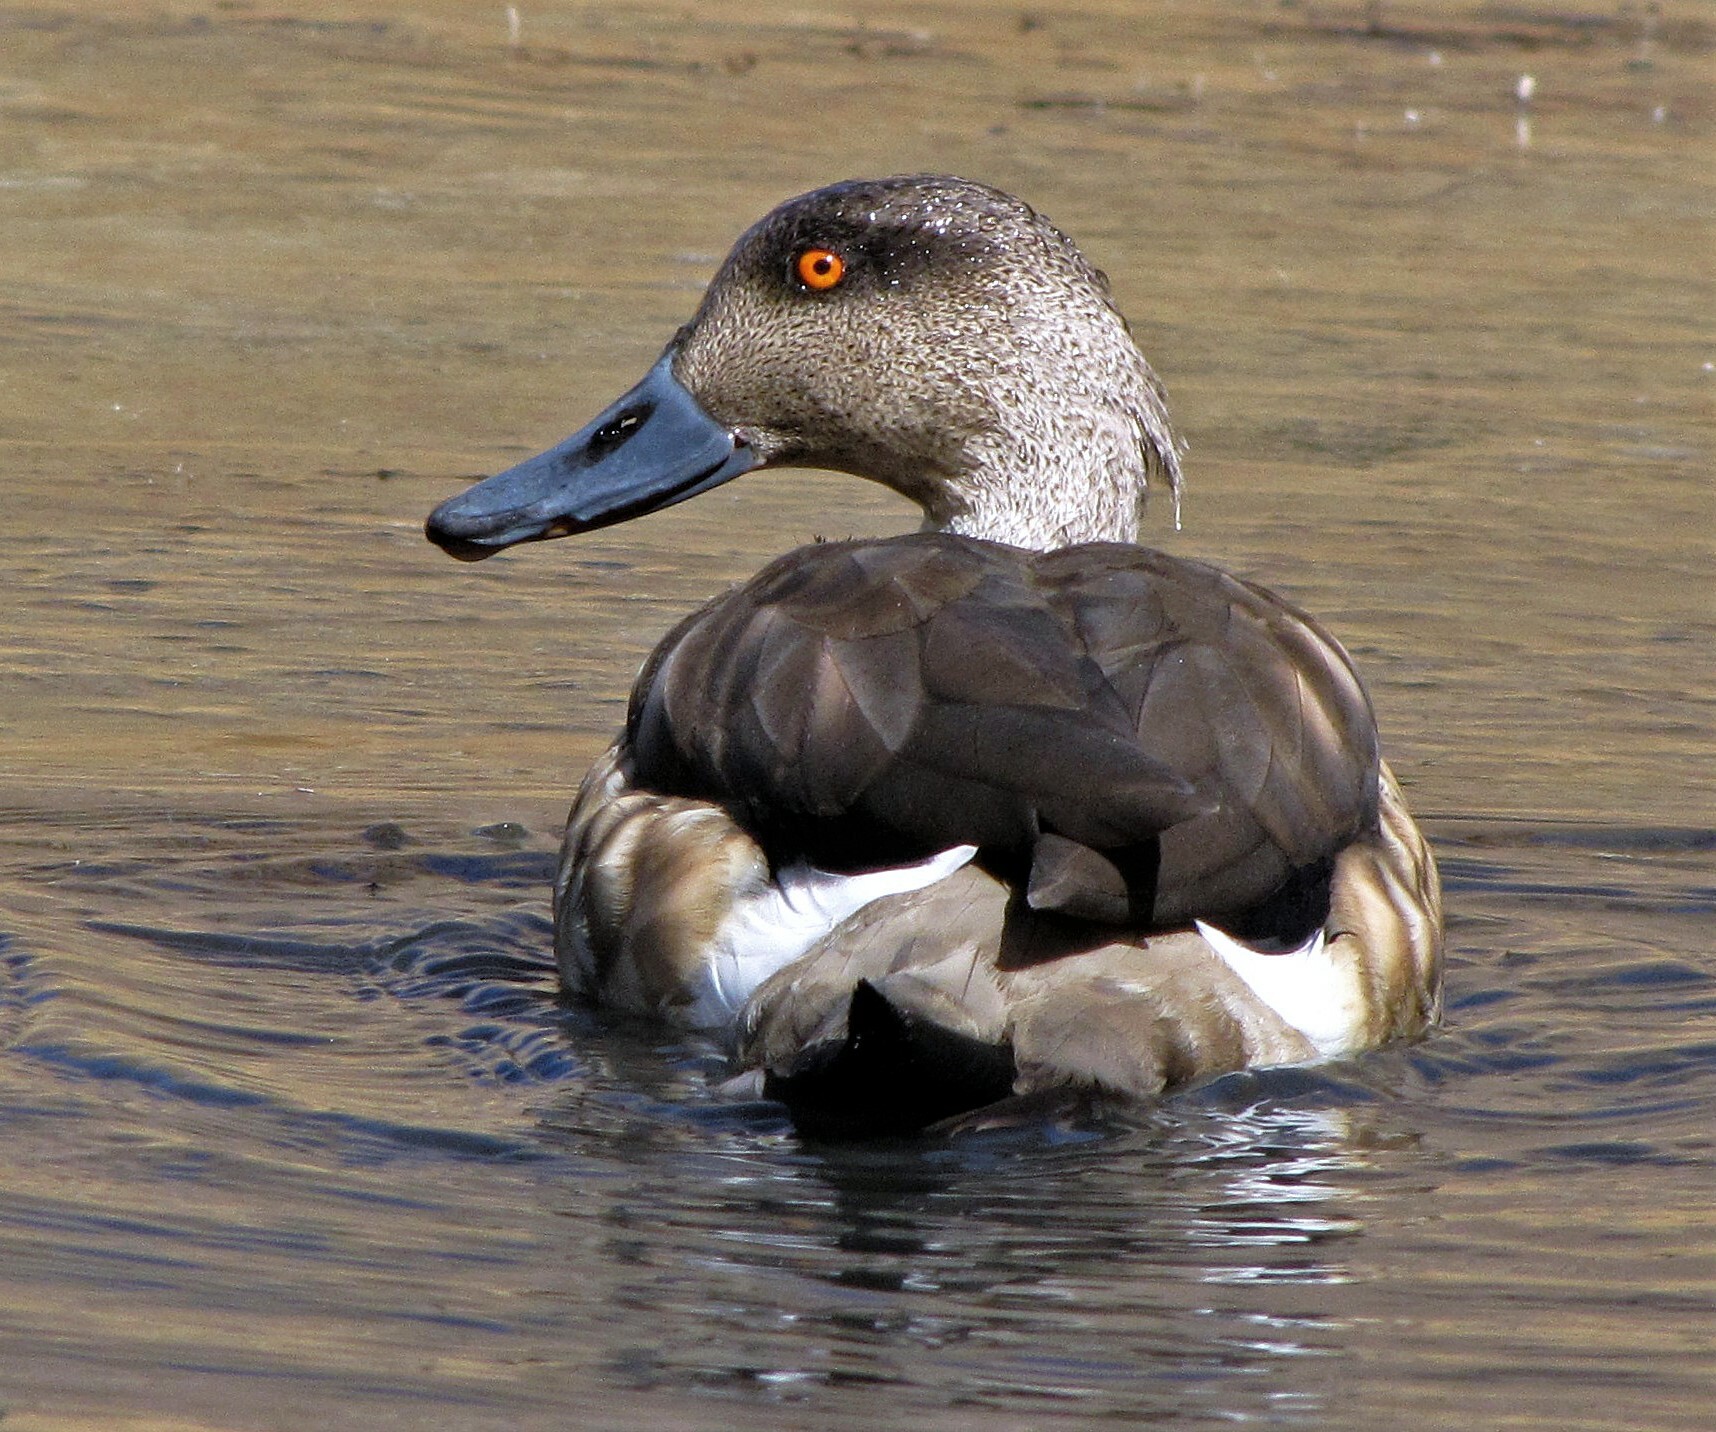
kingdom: Animalia
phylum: Chordata
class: Aves
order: Anseriformes
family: Anatidae
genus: Lophonetta
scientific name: Lophonetta specularioides
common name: Crested duck
